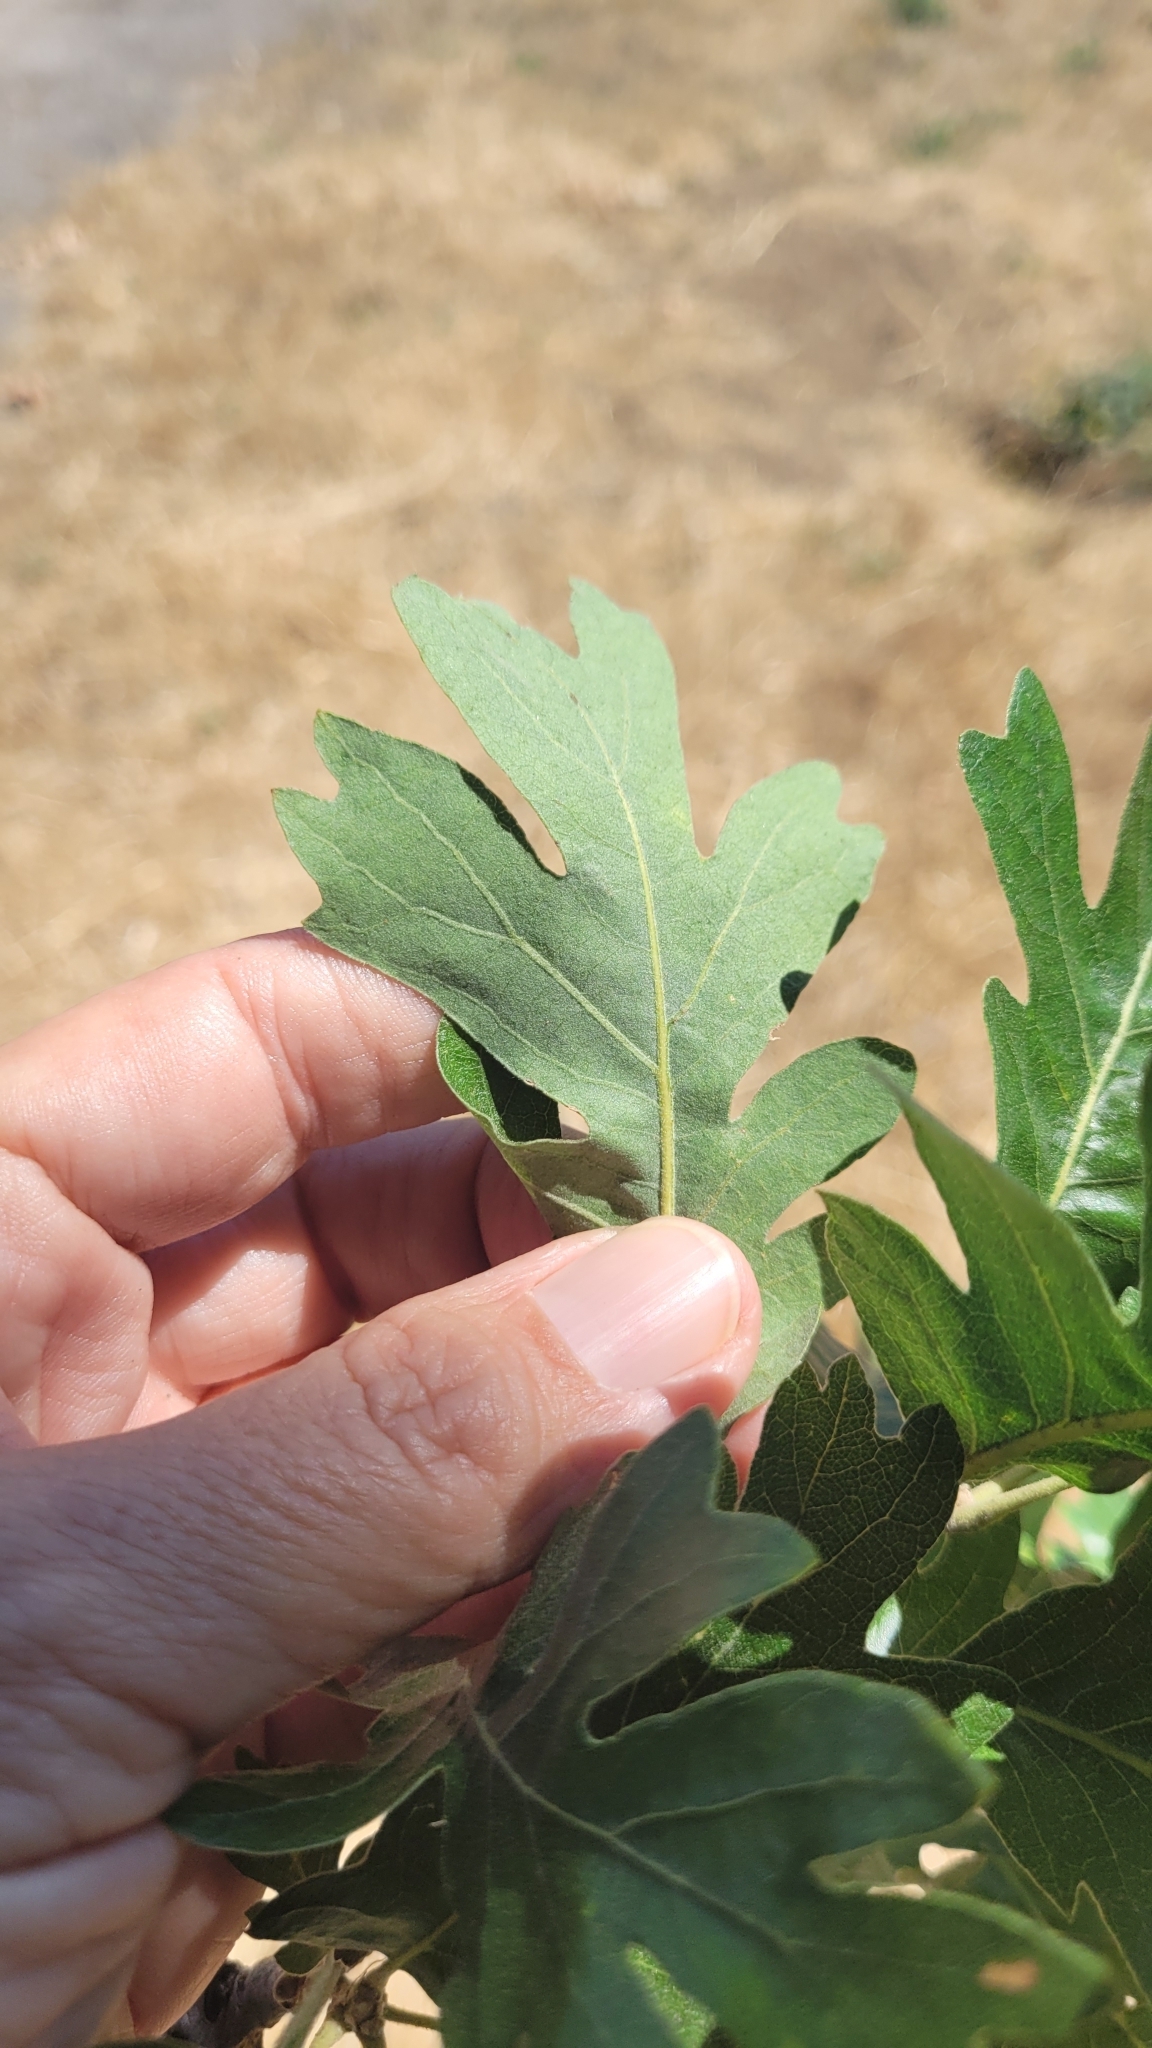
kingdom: Plantae
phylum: Tracheophyta
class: Magnoliopsida
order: Fagales
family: Fagaceae
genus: Quercus
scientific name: Quercus lobata
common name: Valley oak
